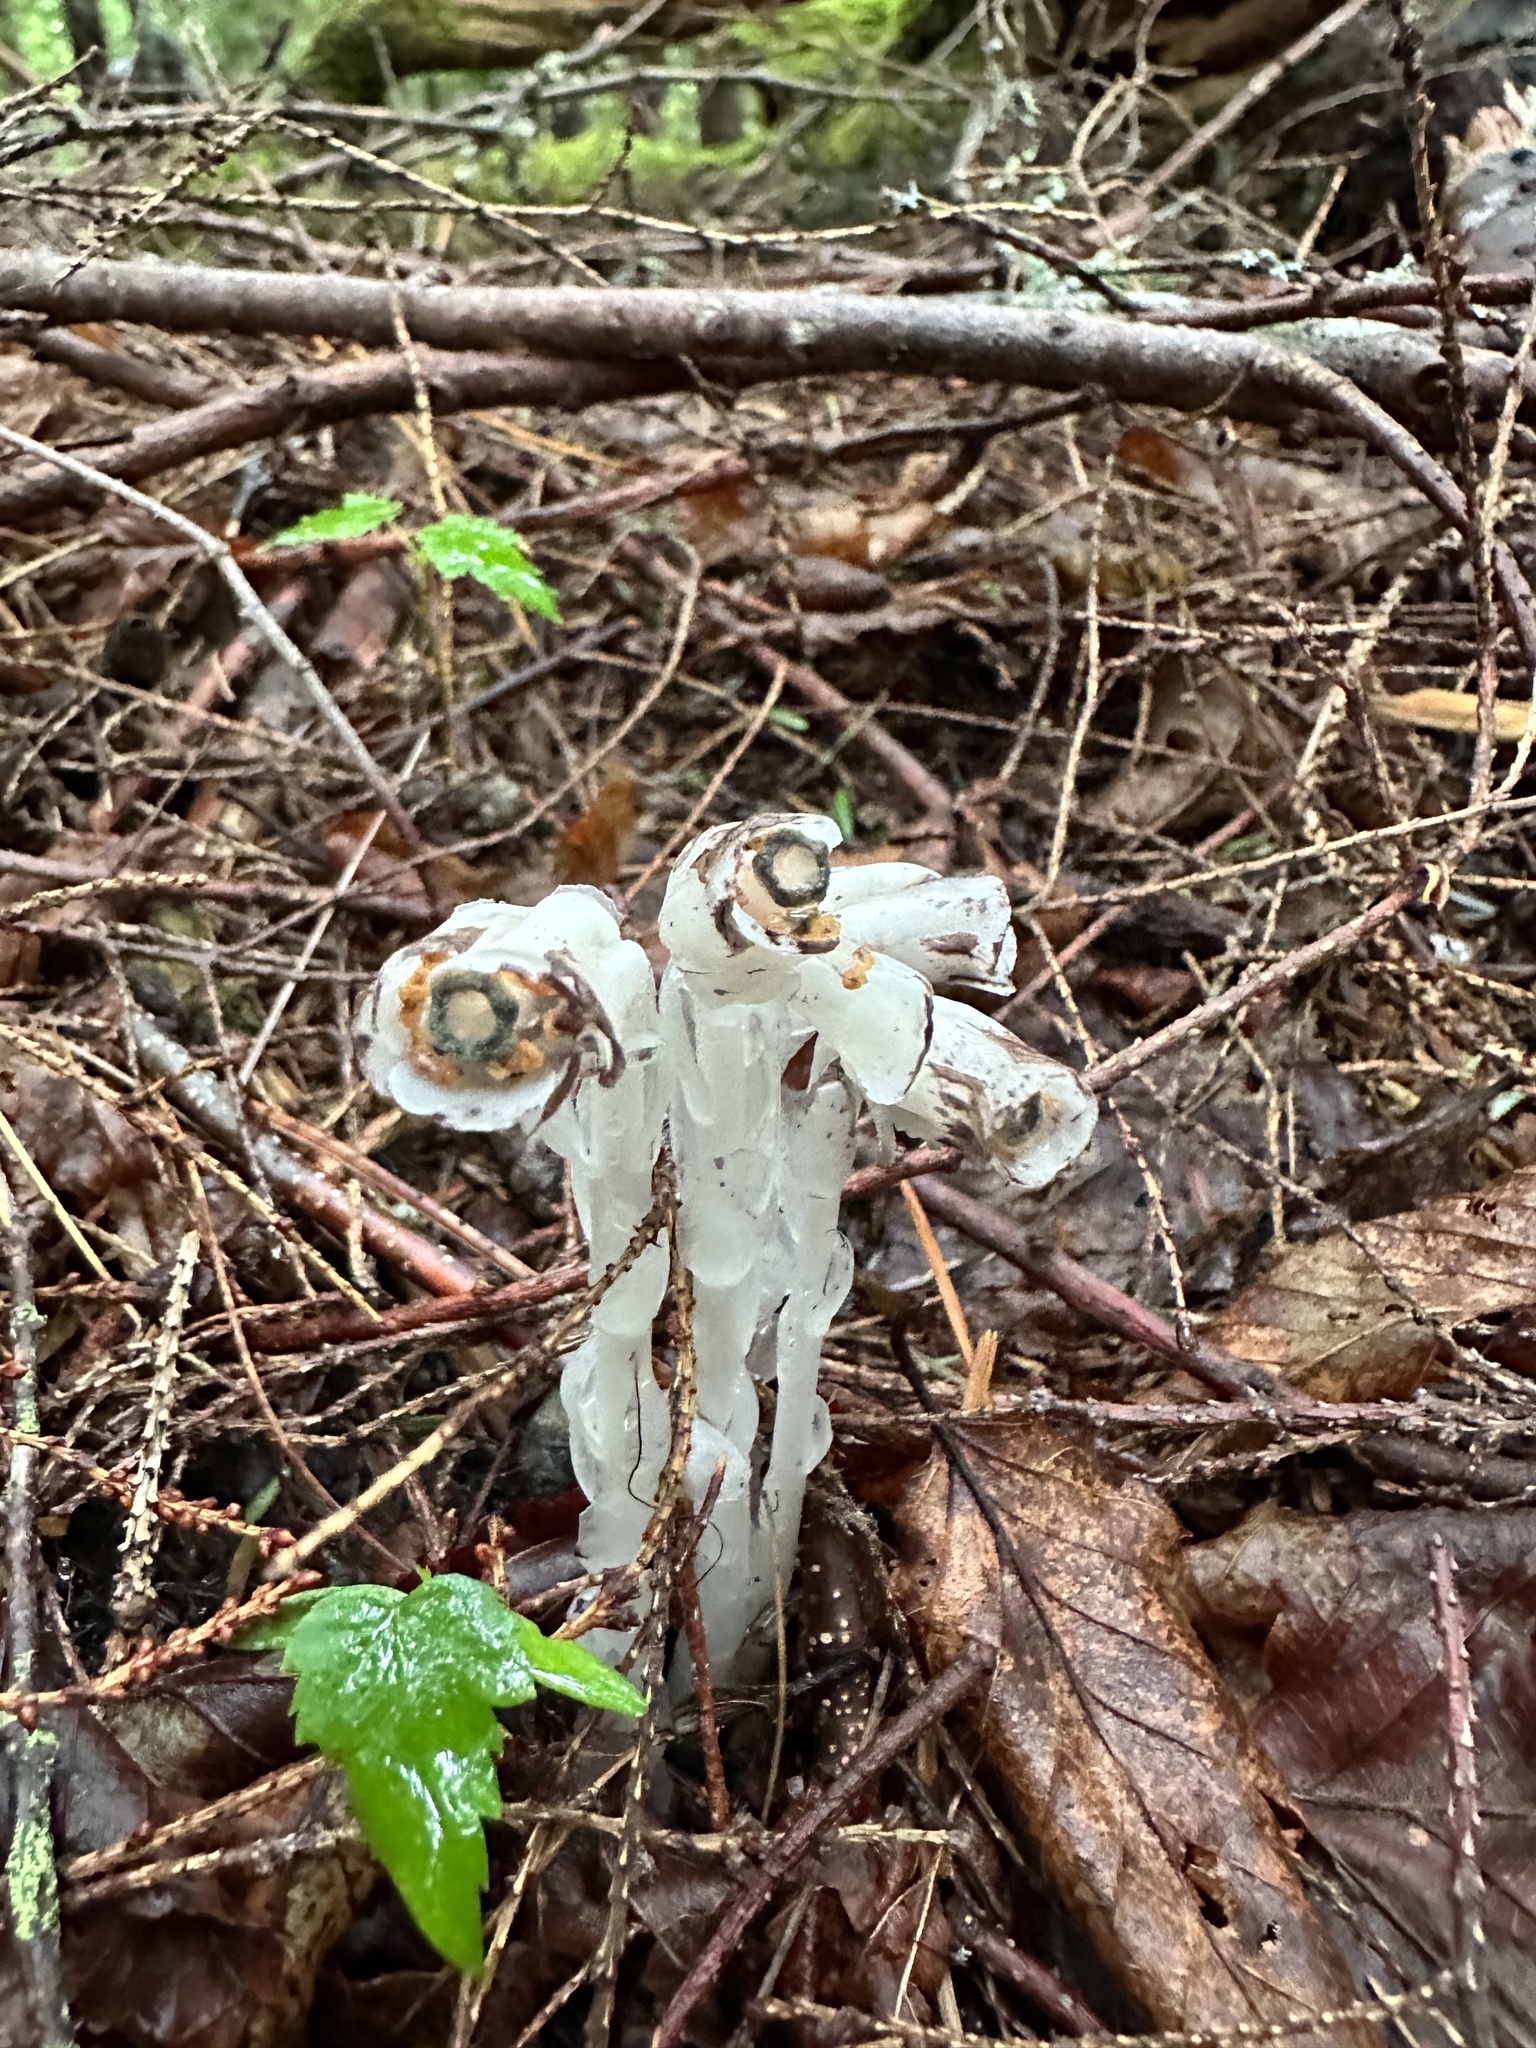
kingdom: Plantae
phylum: Tracheophyta
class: Magnoliopsida
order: Ericales
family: Ericaceae
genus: Monotropa
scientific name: Monotropa uniflora
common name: Convulsion root
